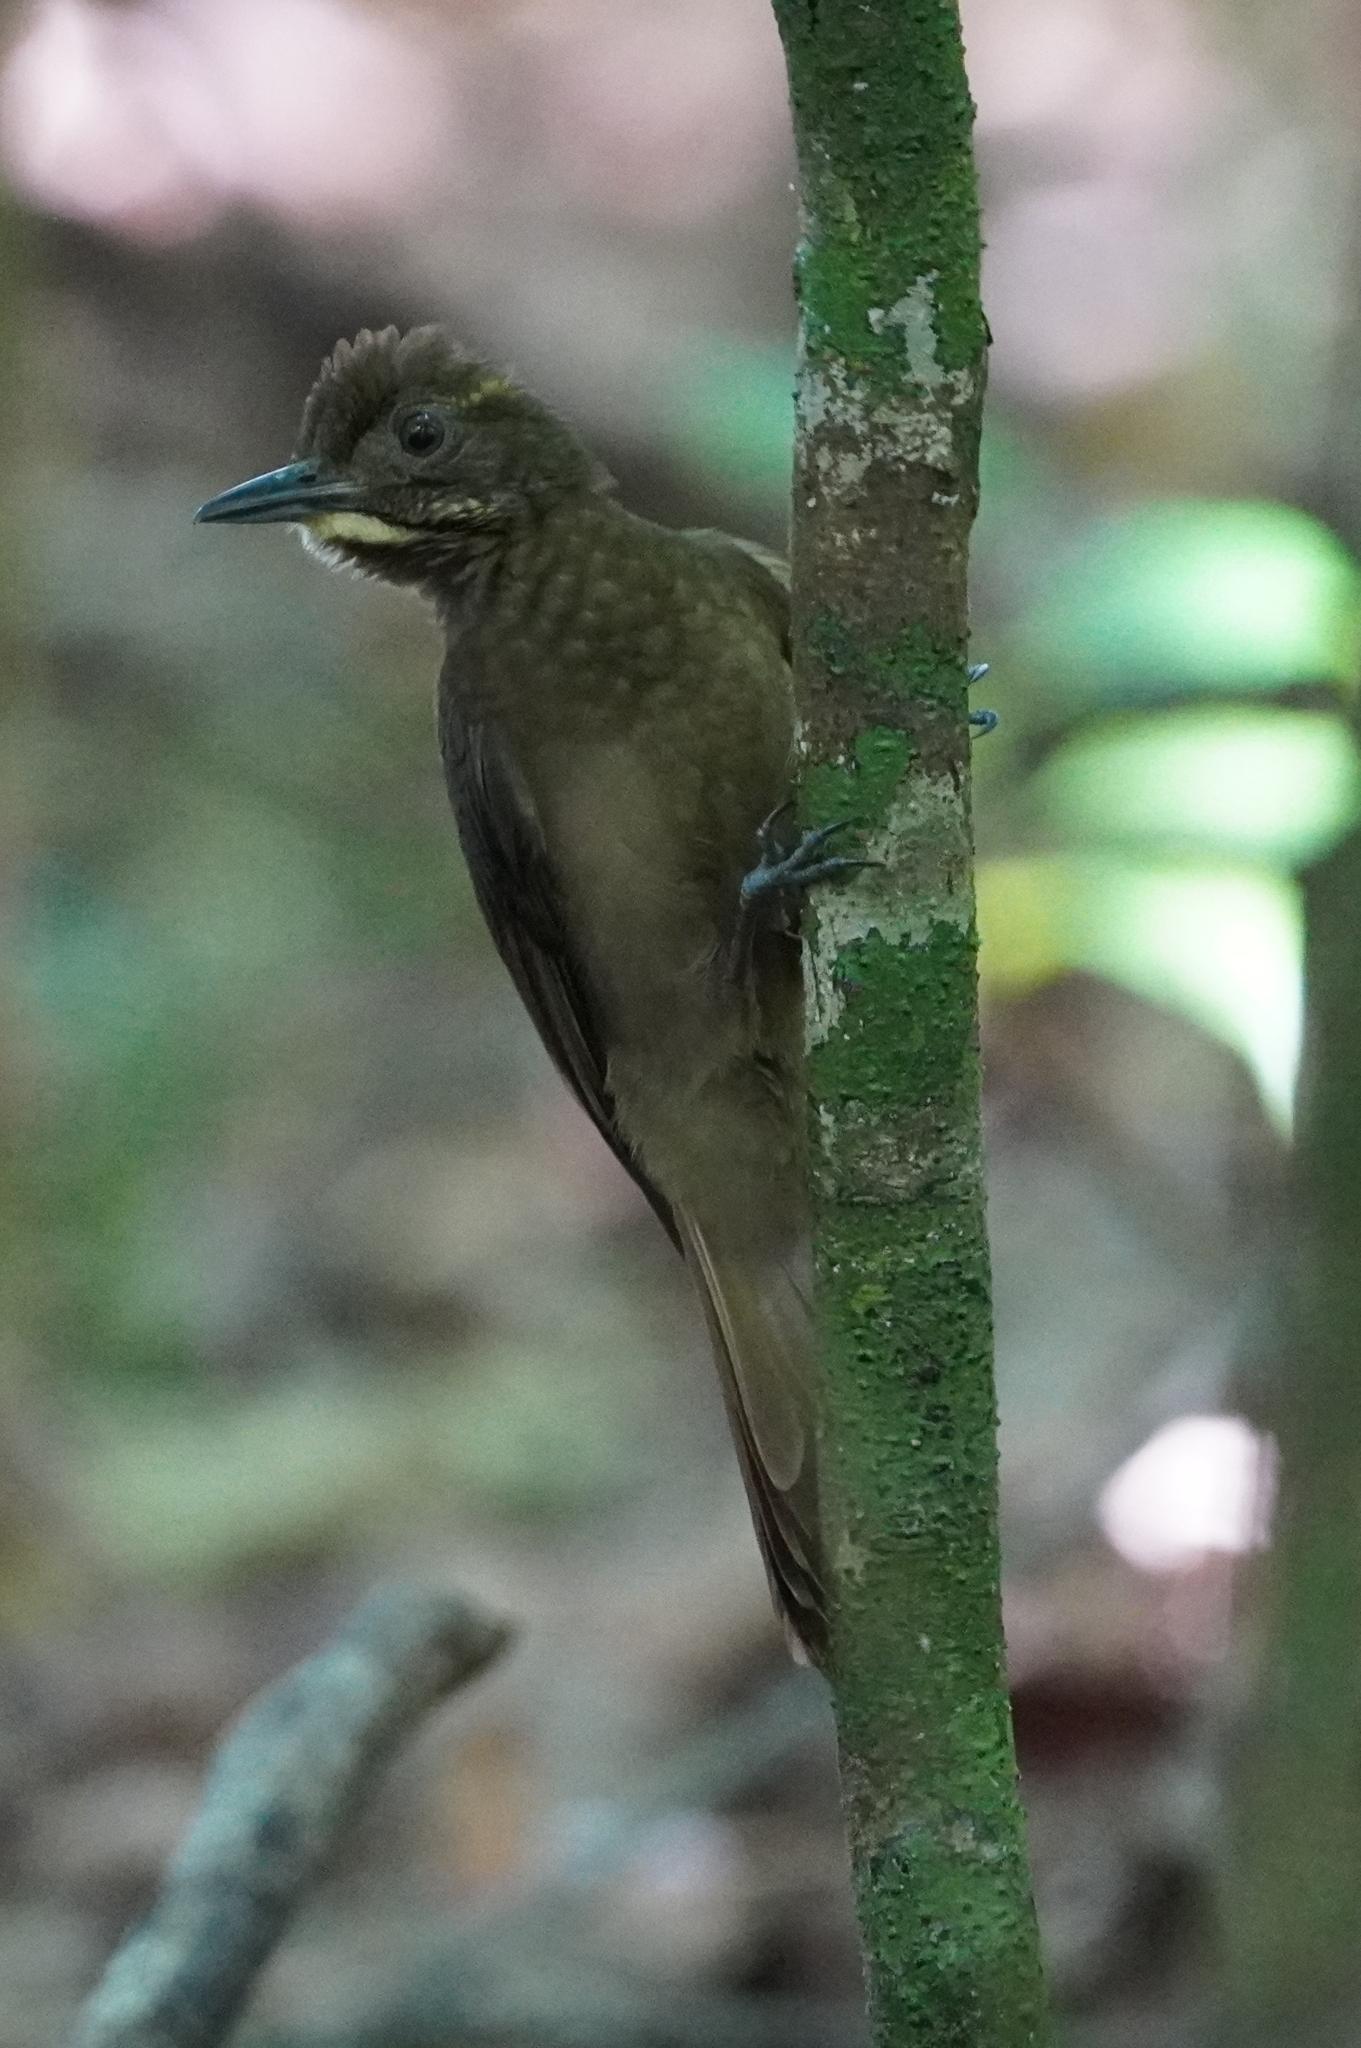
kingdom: Animalia
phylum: Chordata
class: Aves
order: Passeriformes
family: Furnariidae
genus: Dendrocincla
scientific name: Dendrocincla anabatina
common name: Tawny-winged woodcreeper
